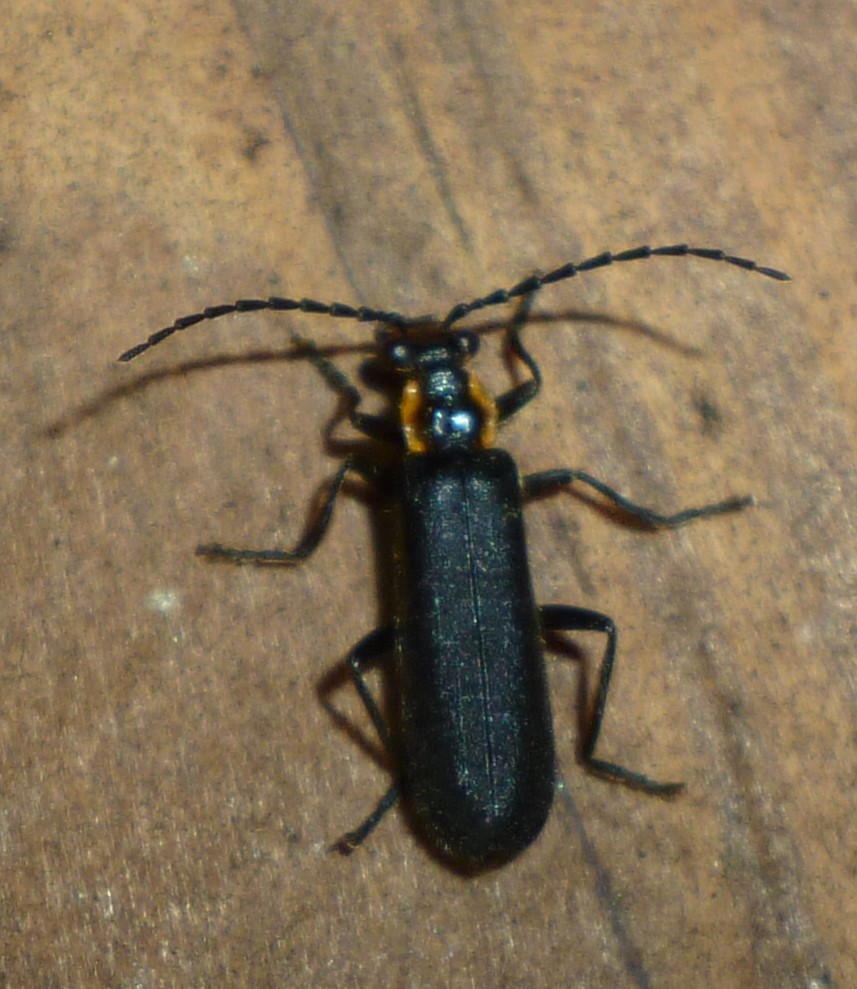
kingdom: Animalia
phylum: Arthropoda
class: Insecta
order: Coleoptera
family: Cantharidae
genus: Podabrus
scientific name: Podabrus frater
